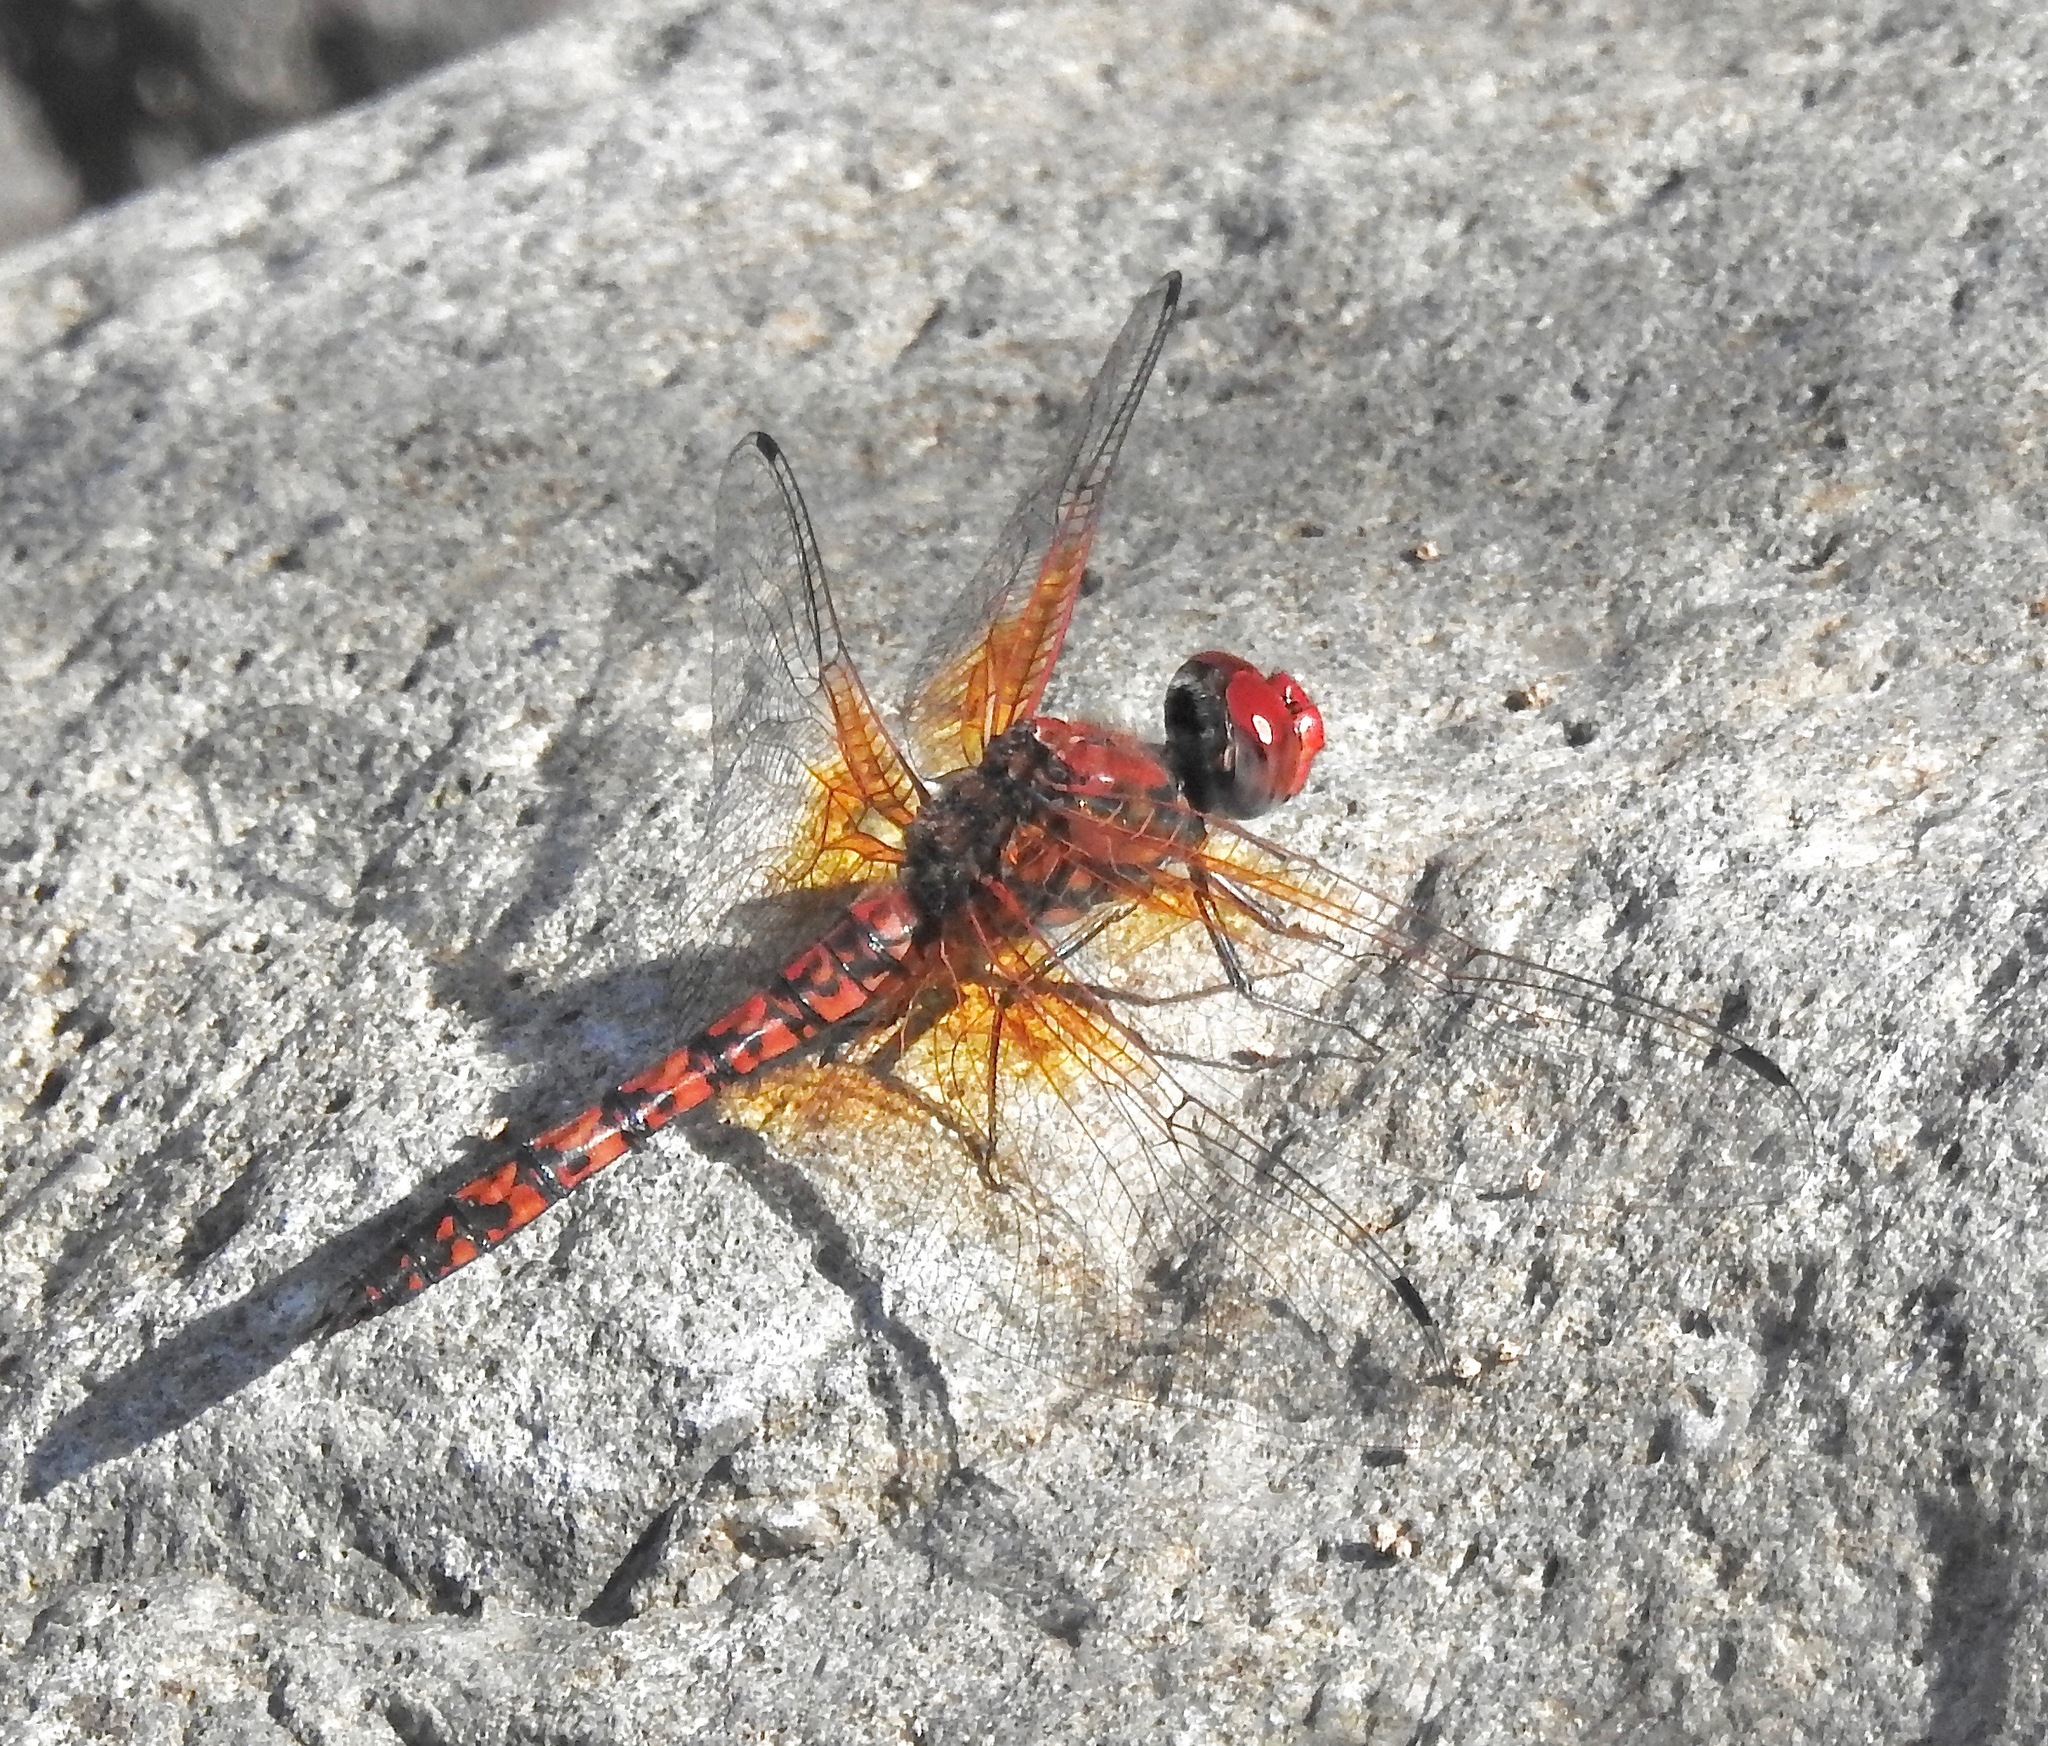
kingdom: Animalia
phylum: Arthropoda
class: Insecta
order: Odonata
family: Libellulidae
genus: Paltothemis
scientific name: Paltothemis lineatipes
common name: Red rock skimmer
